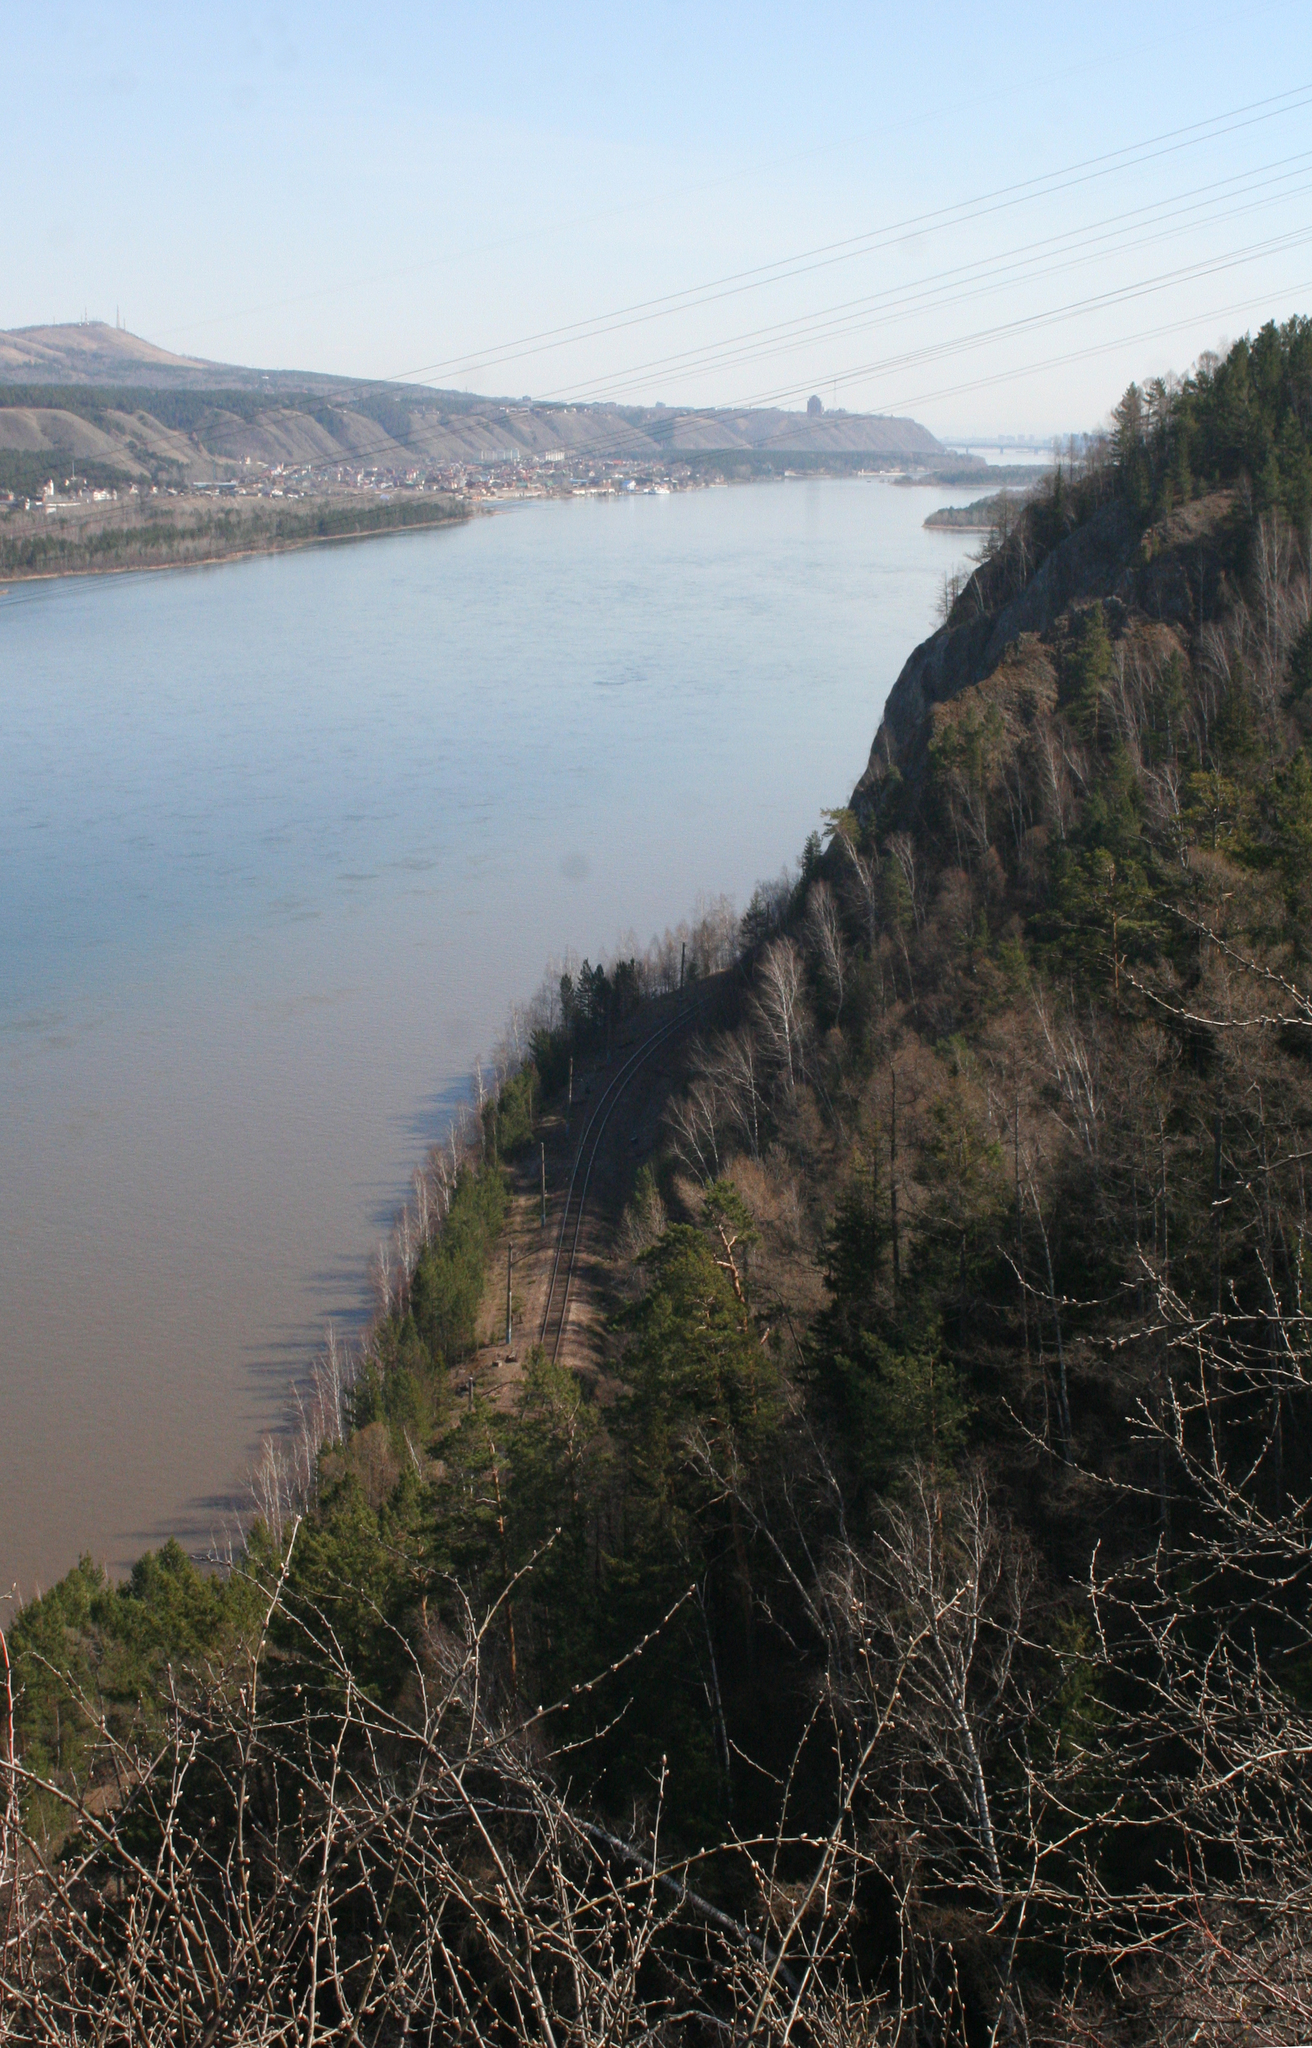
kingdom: Plantae
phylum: Tracheophyta
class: Magnoliopsida
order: Fabales
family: Fabaceae
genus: Caragana
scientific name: Caragana arborescens
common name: Siberian peashrub
